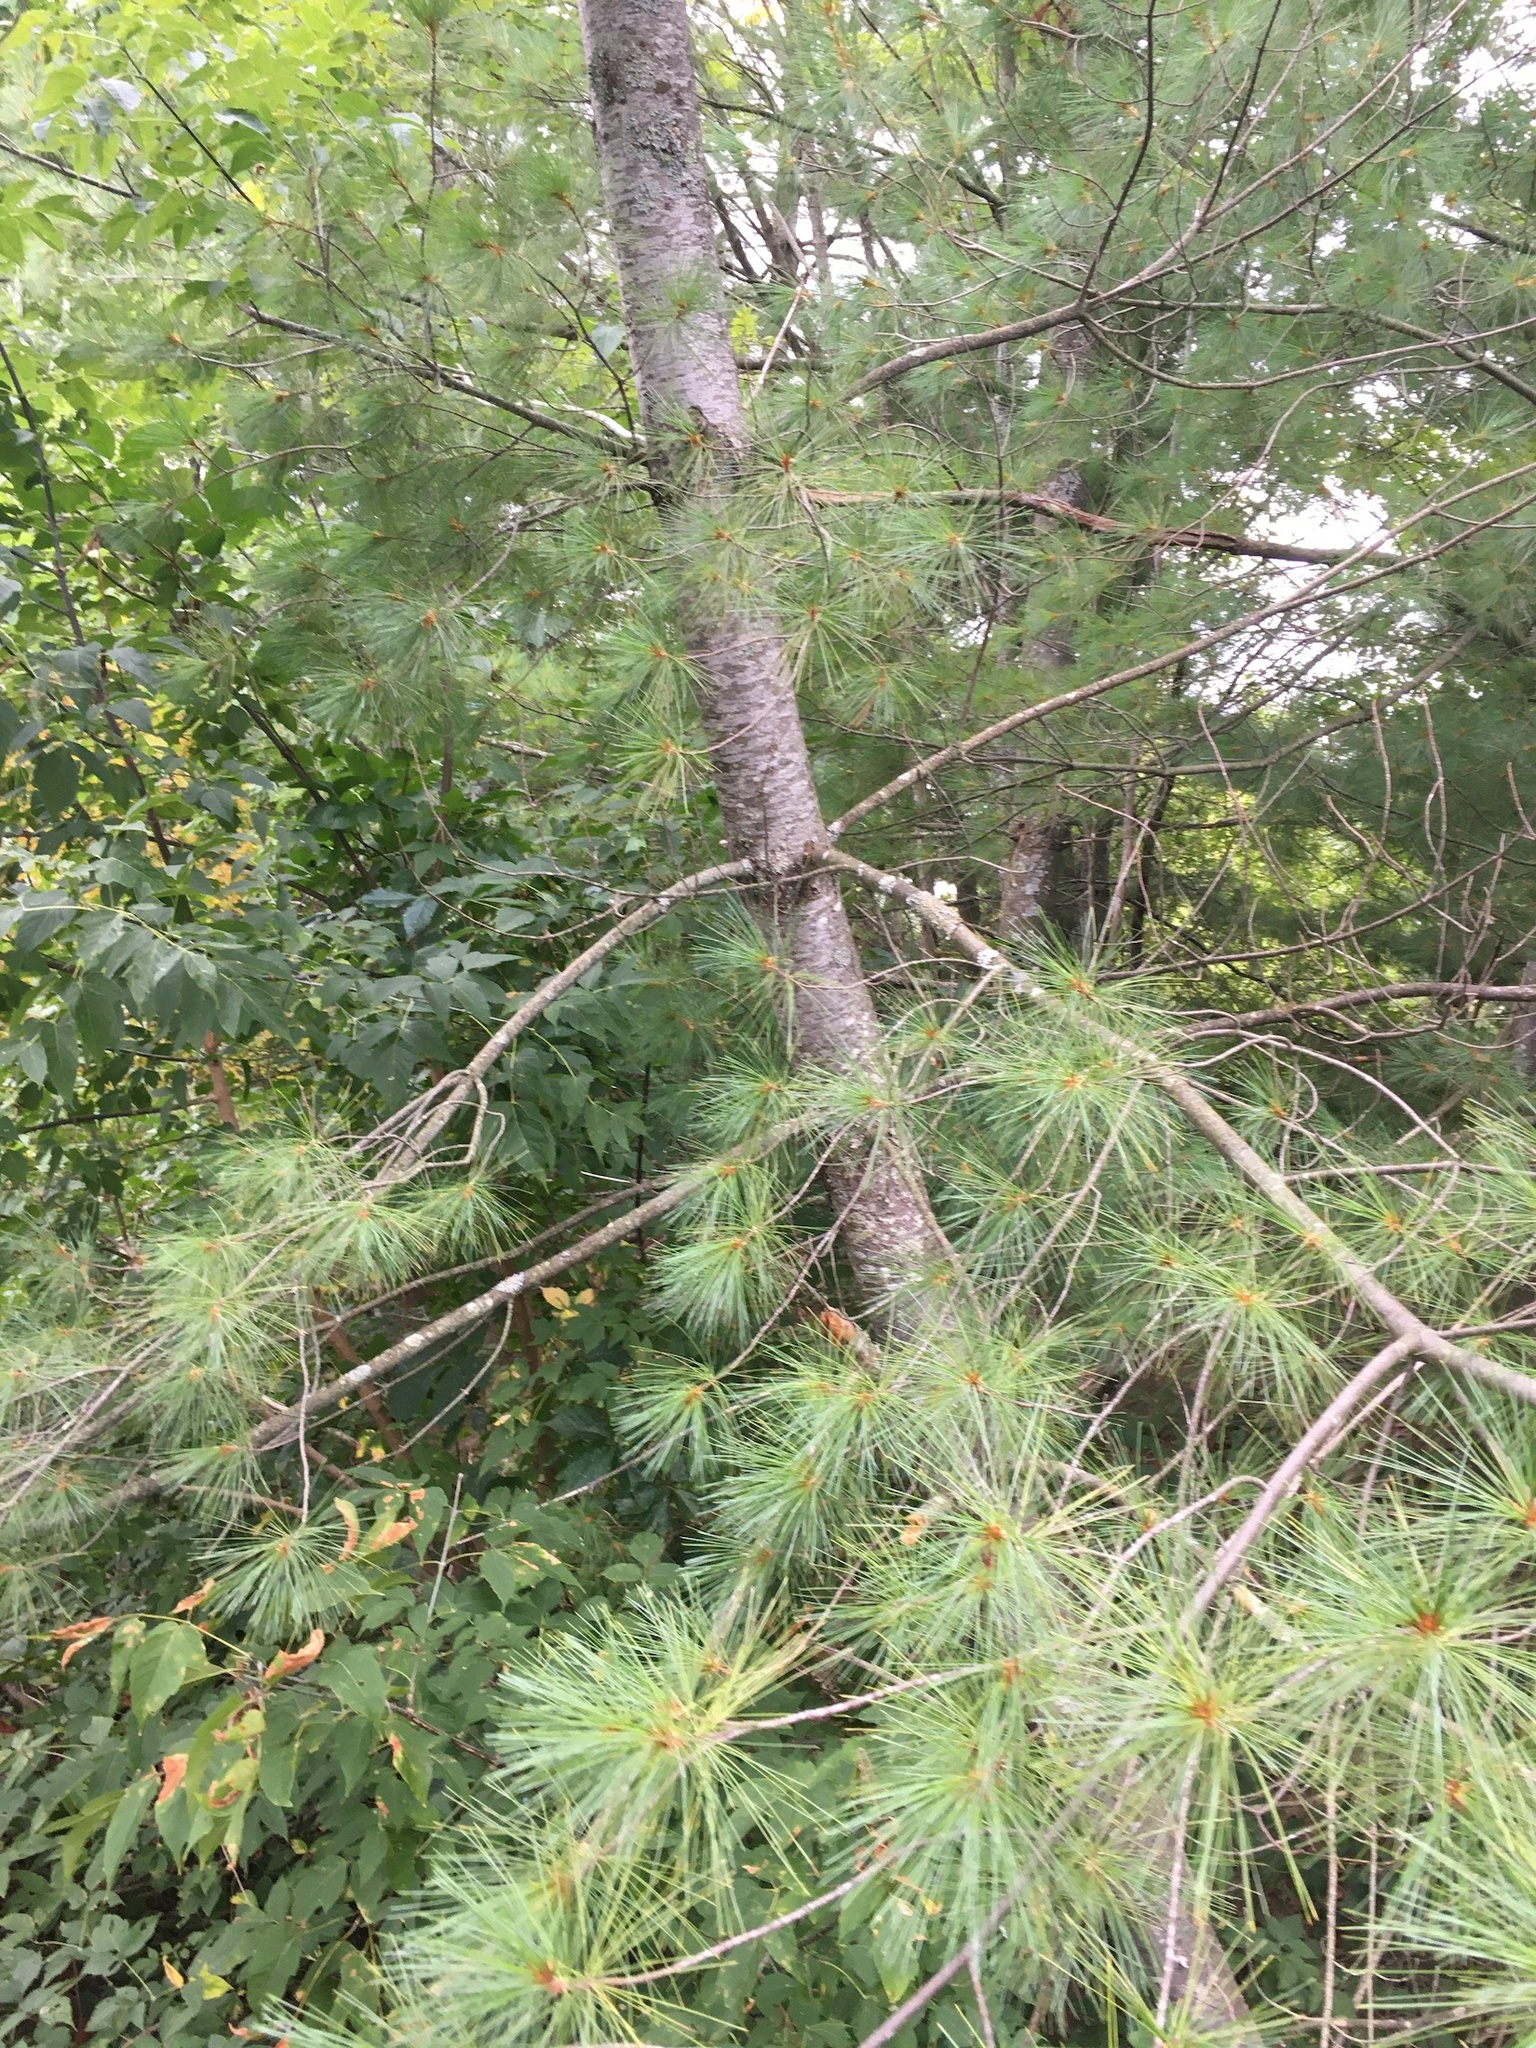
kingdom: Plantae
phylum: Tracheophyta
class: Pinopsida
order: Pinales
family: Pinaceae
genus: Pinus
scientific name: Pinus strobus
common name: Weymouth pine
